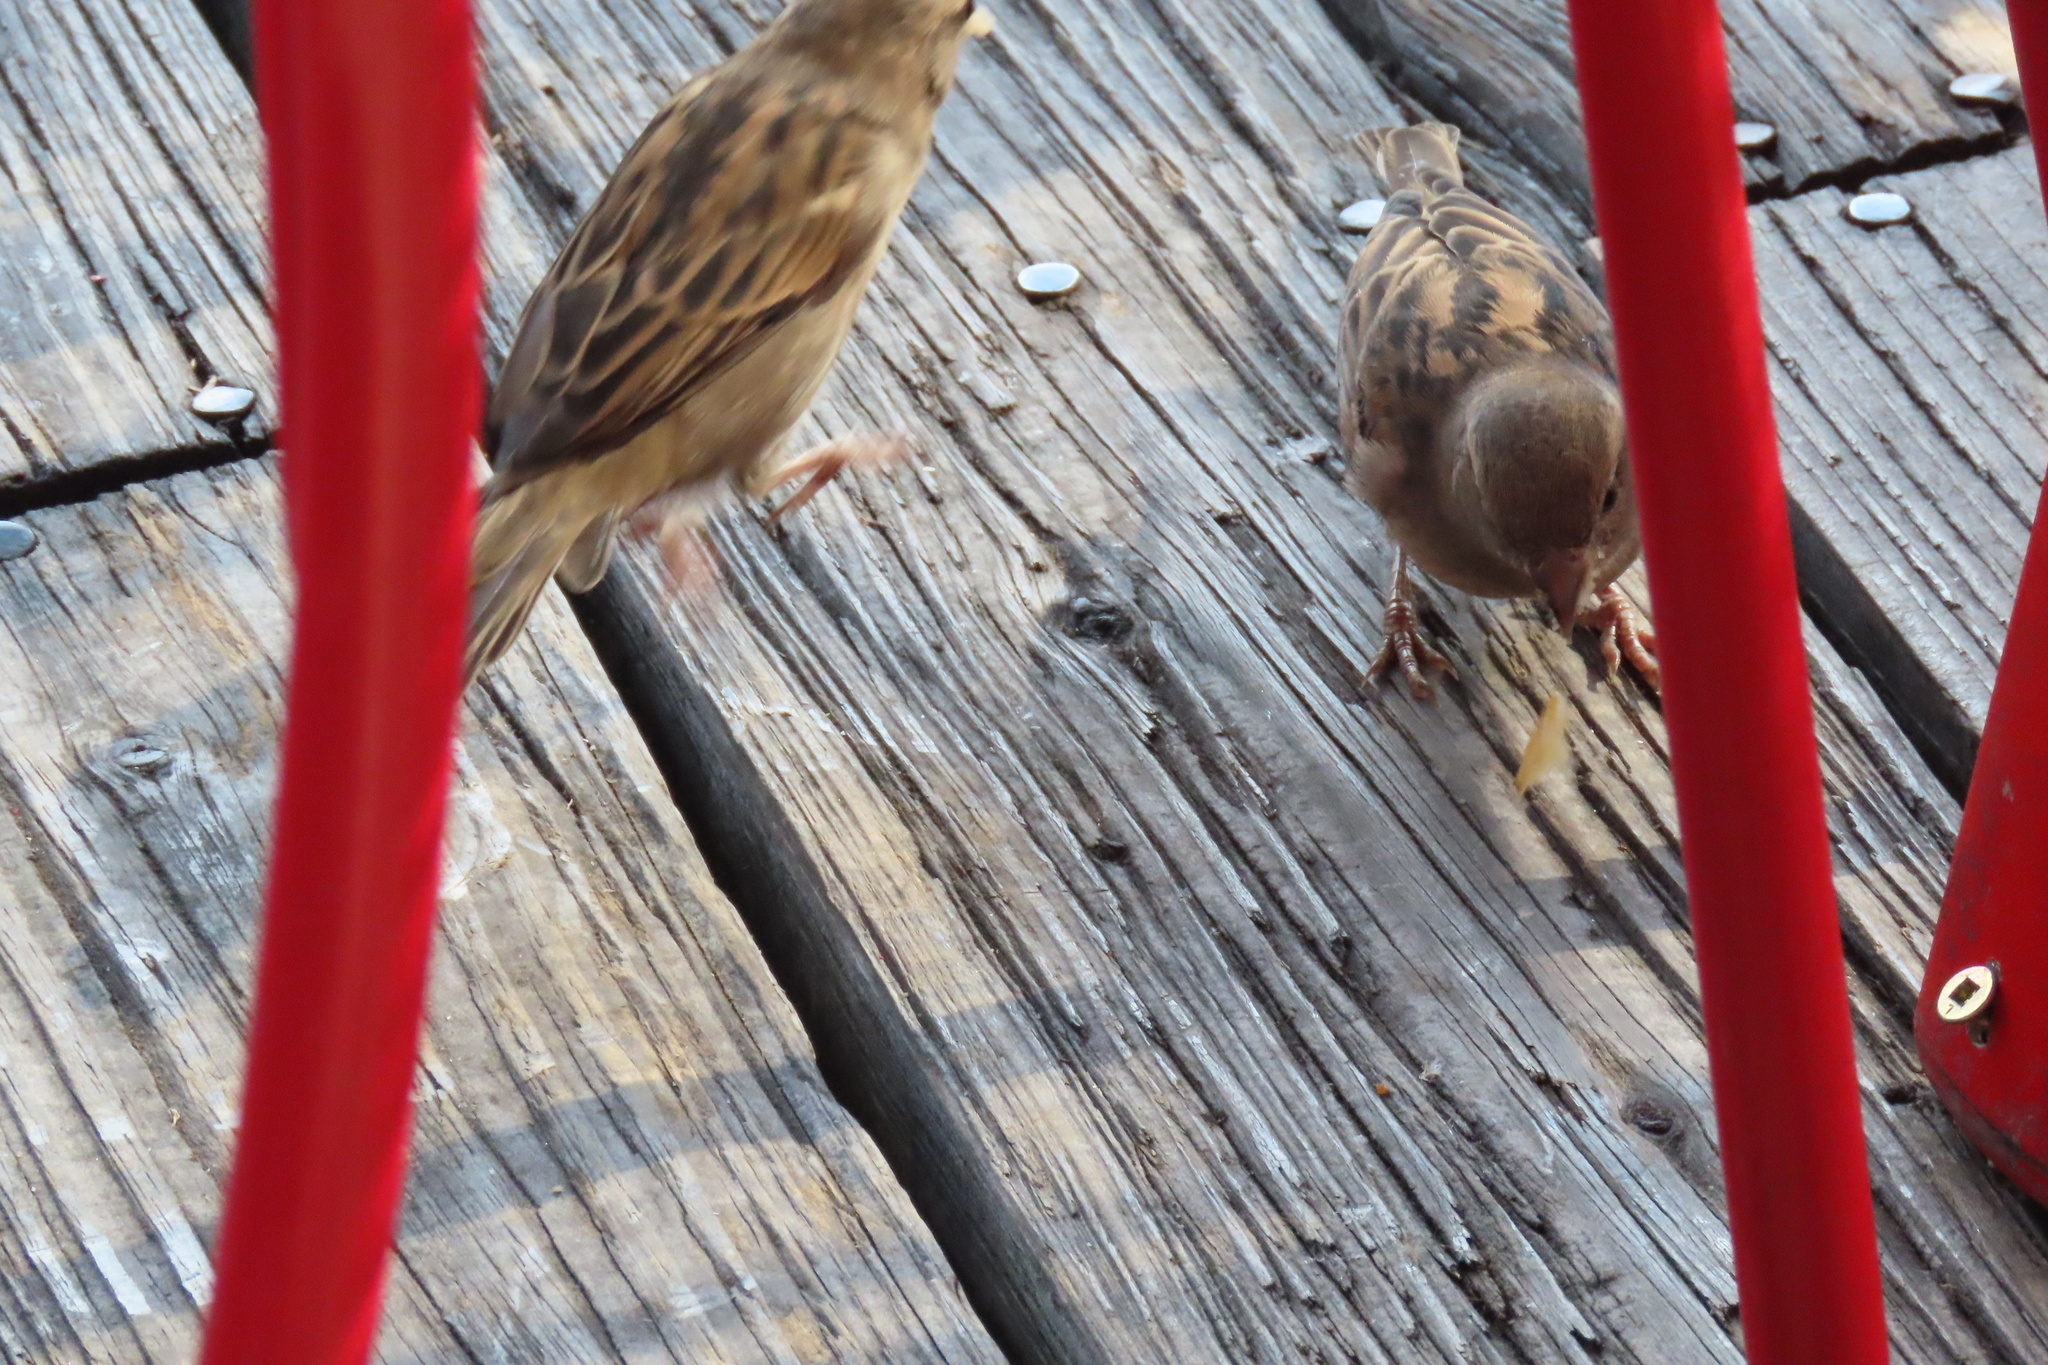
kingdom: Animalia
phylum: Chordata
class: Aves
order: Passeriformes
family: Passeridae
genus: Passer
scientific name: Passer domesticus
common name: House sparrow
